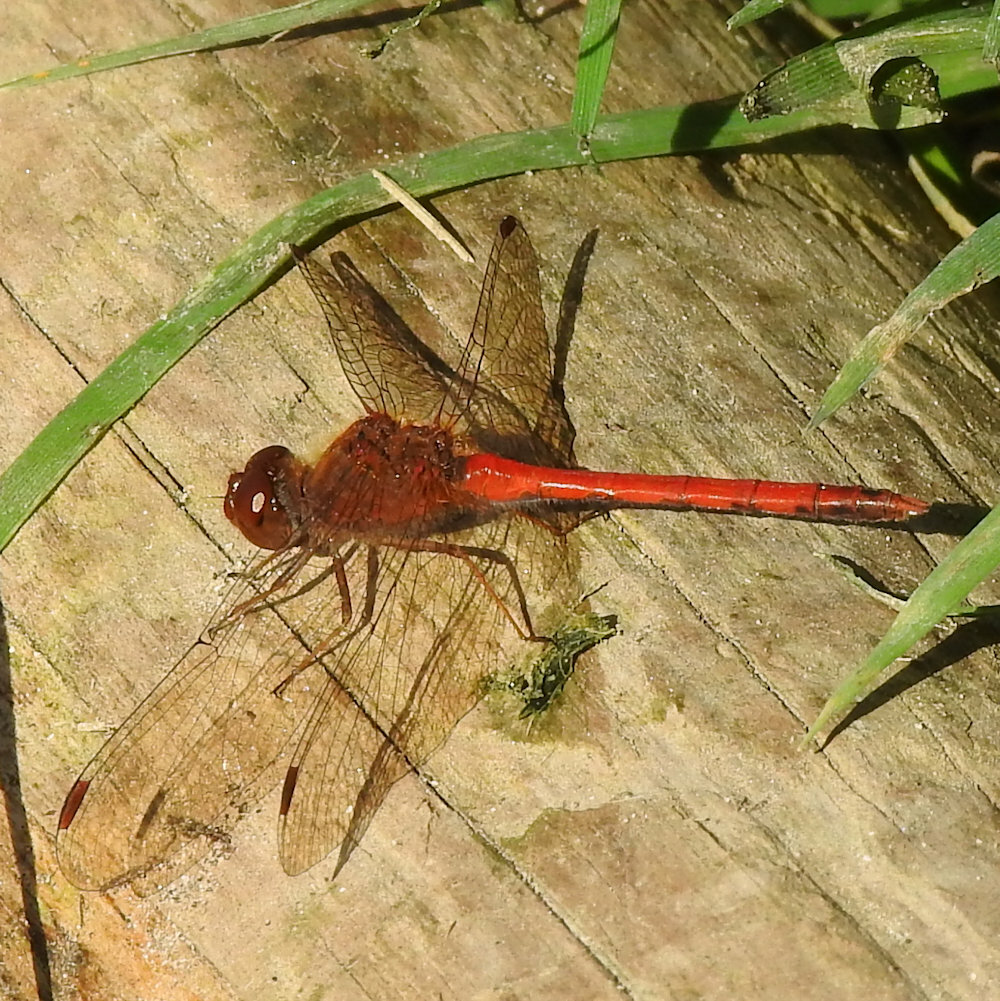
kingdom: Animalia
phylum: Arthropoda
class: Insecta
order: Odonata
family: Libellulidae
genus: Sympetrum
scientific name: Sympetrum vicinum
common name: Autumn meadowhawk
